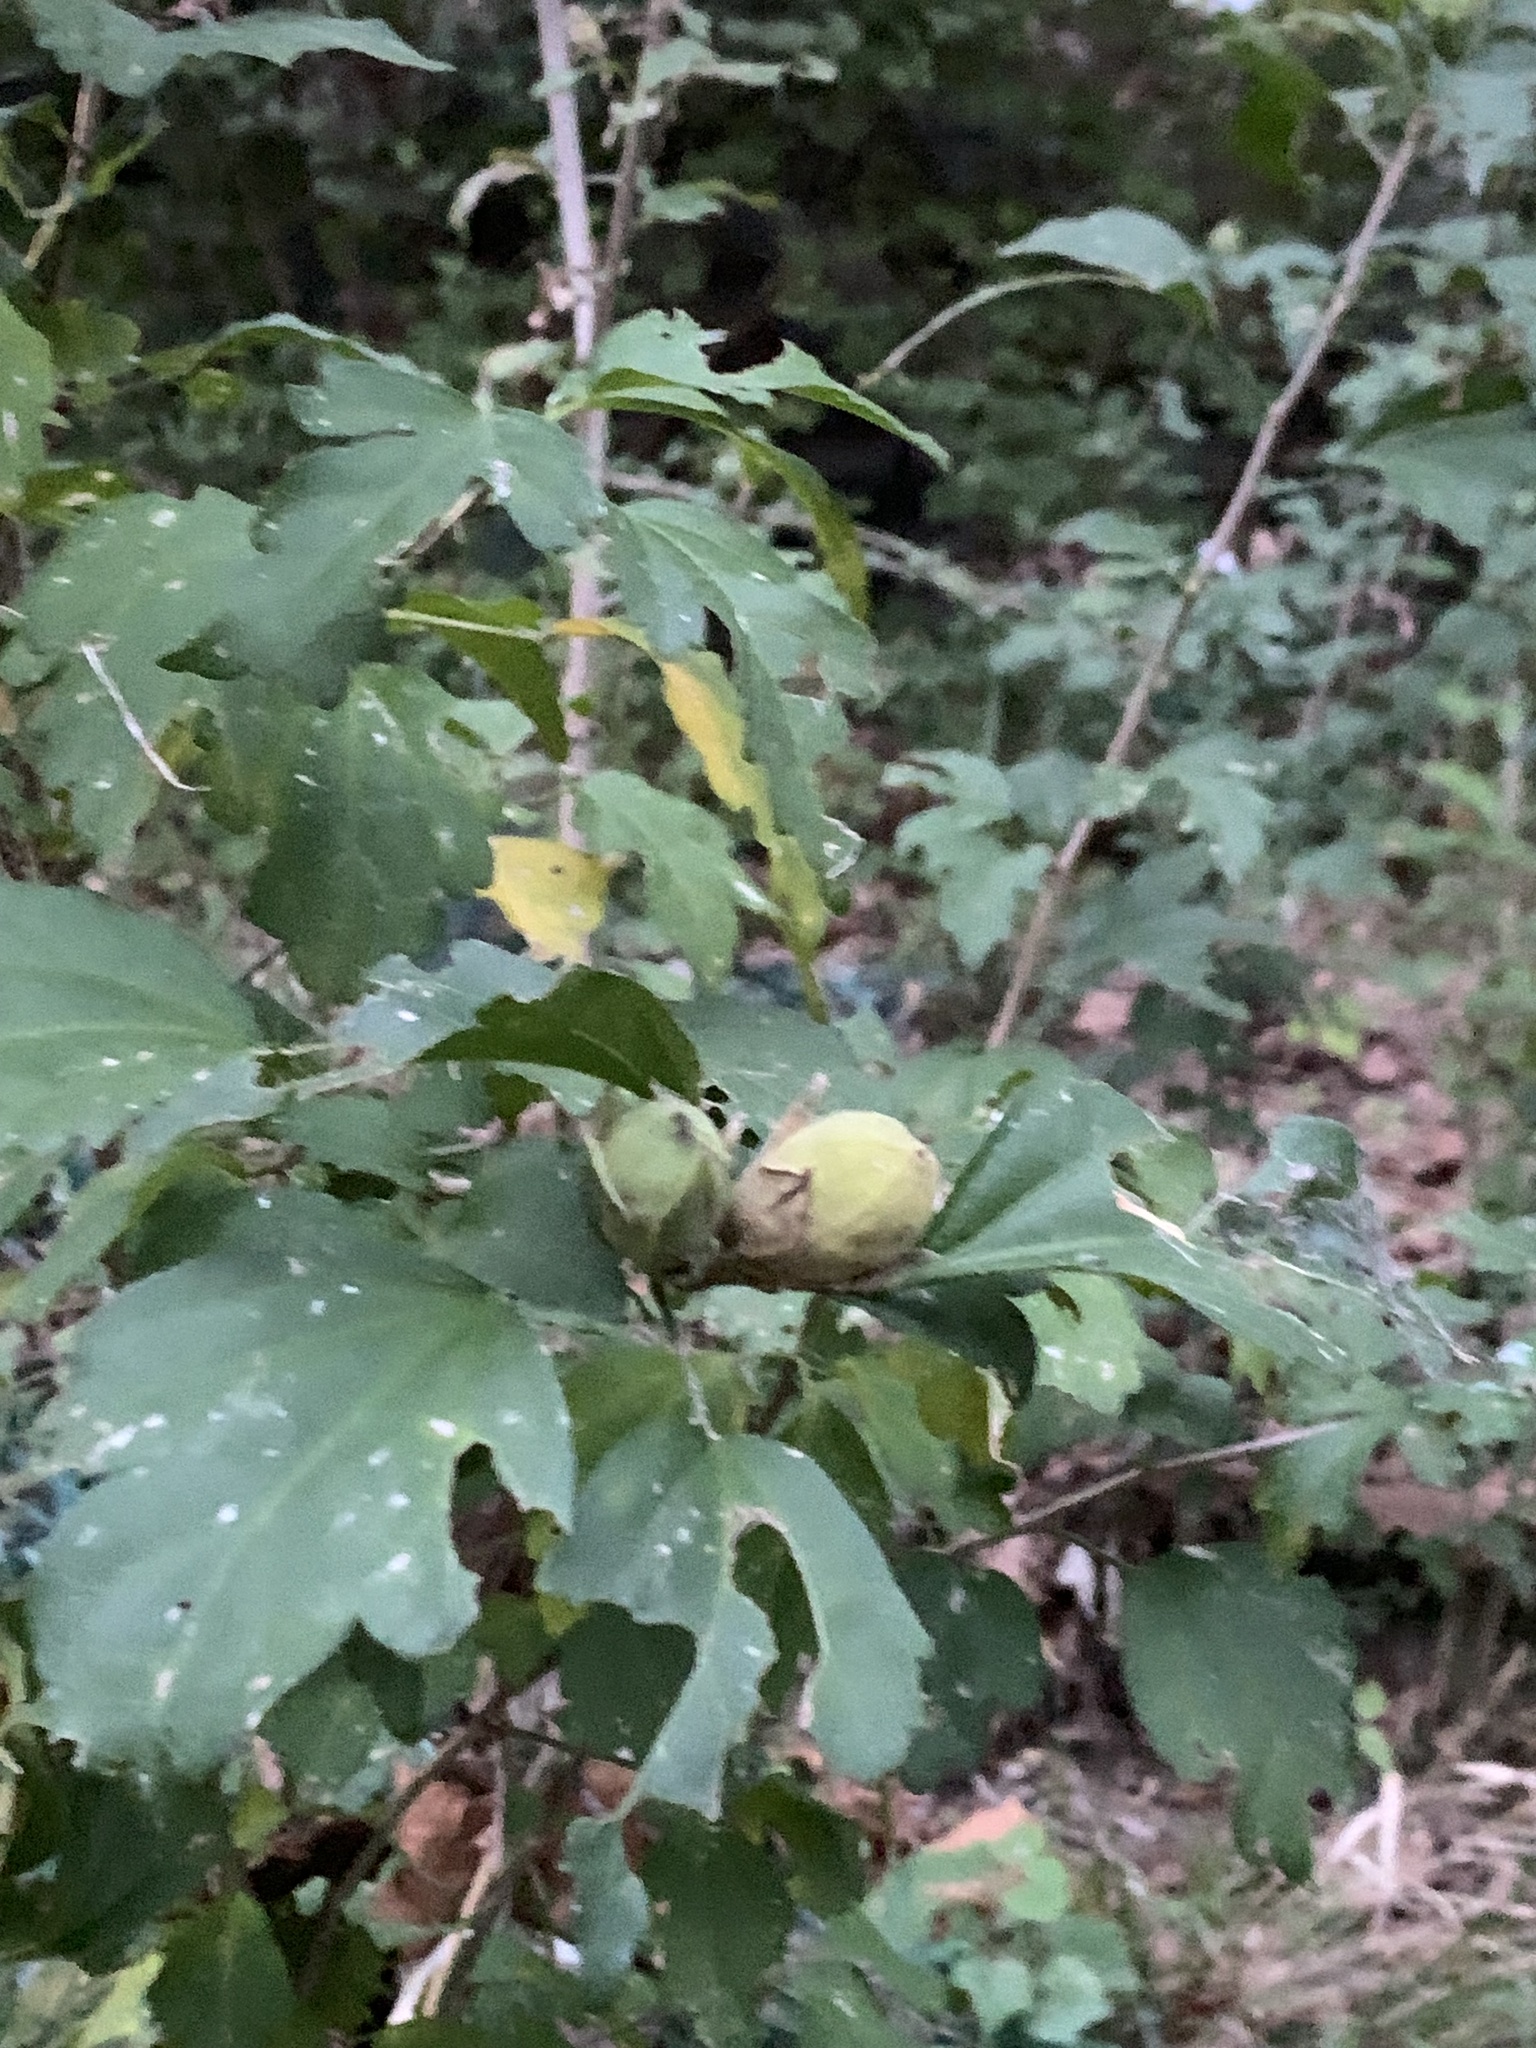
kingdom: Plantae
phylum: Tracheophyta
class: Magnoliopsida
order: Malvales
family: Malvaceae
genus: Hibiscus
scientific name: Hibiscus syriacus
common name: Syrian ketmia
